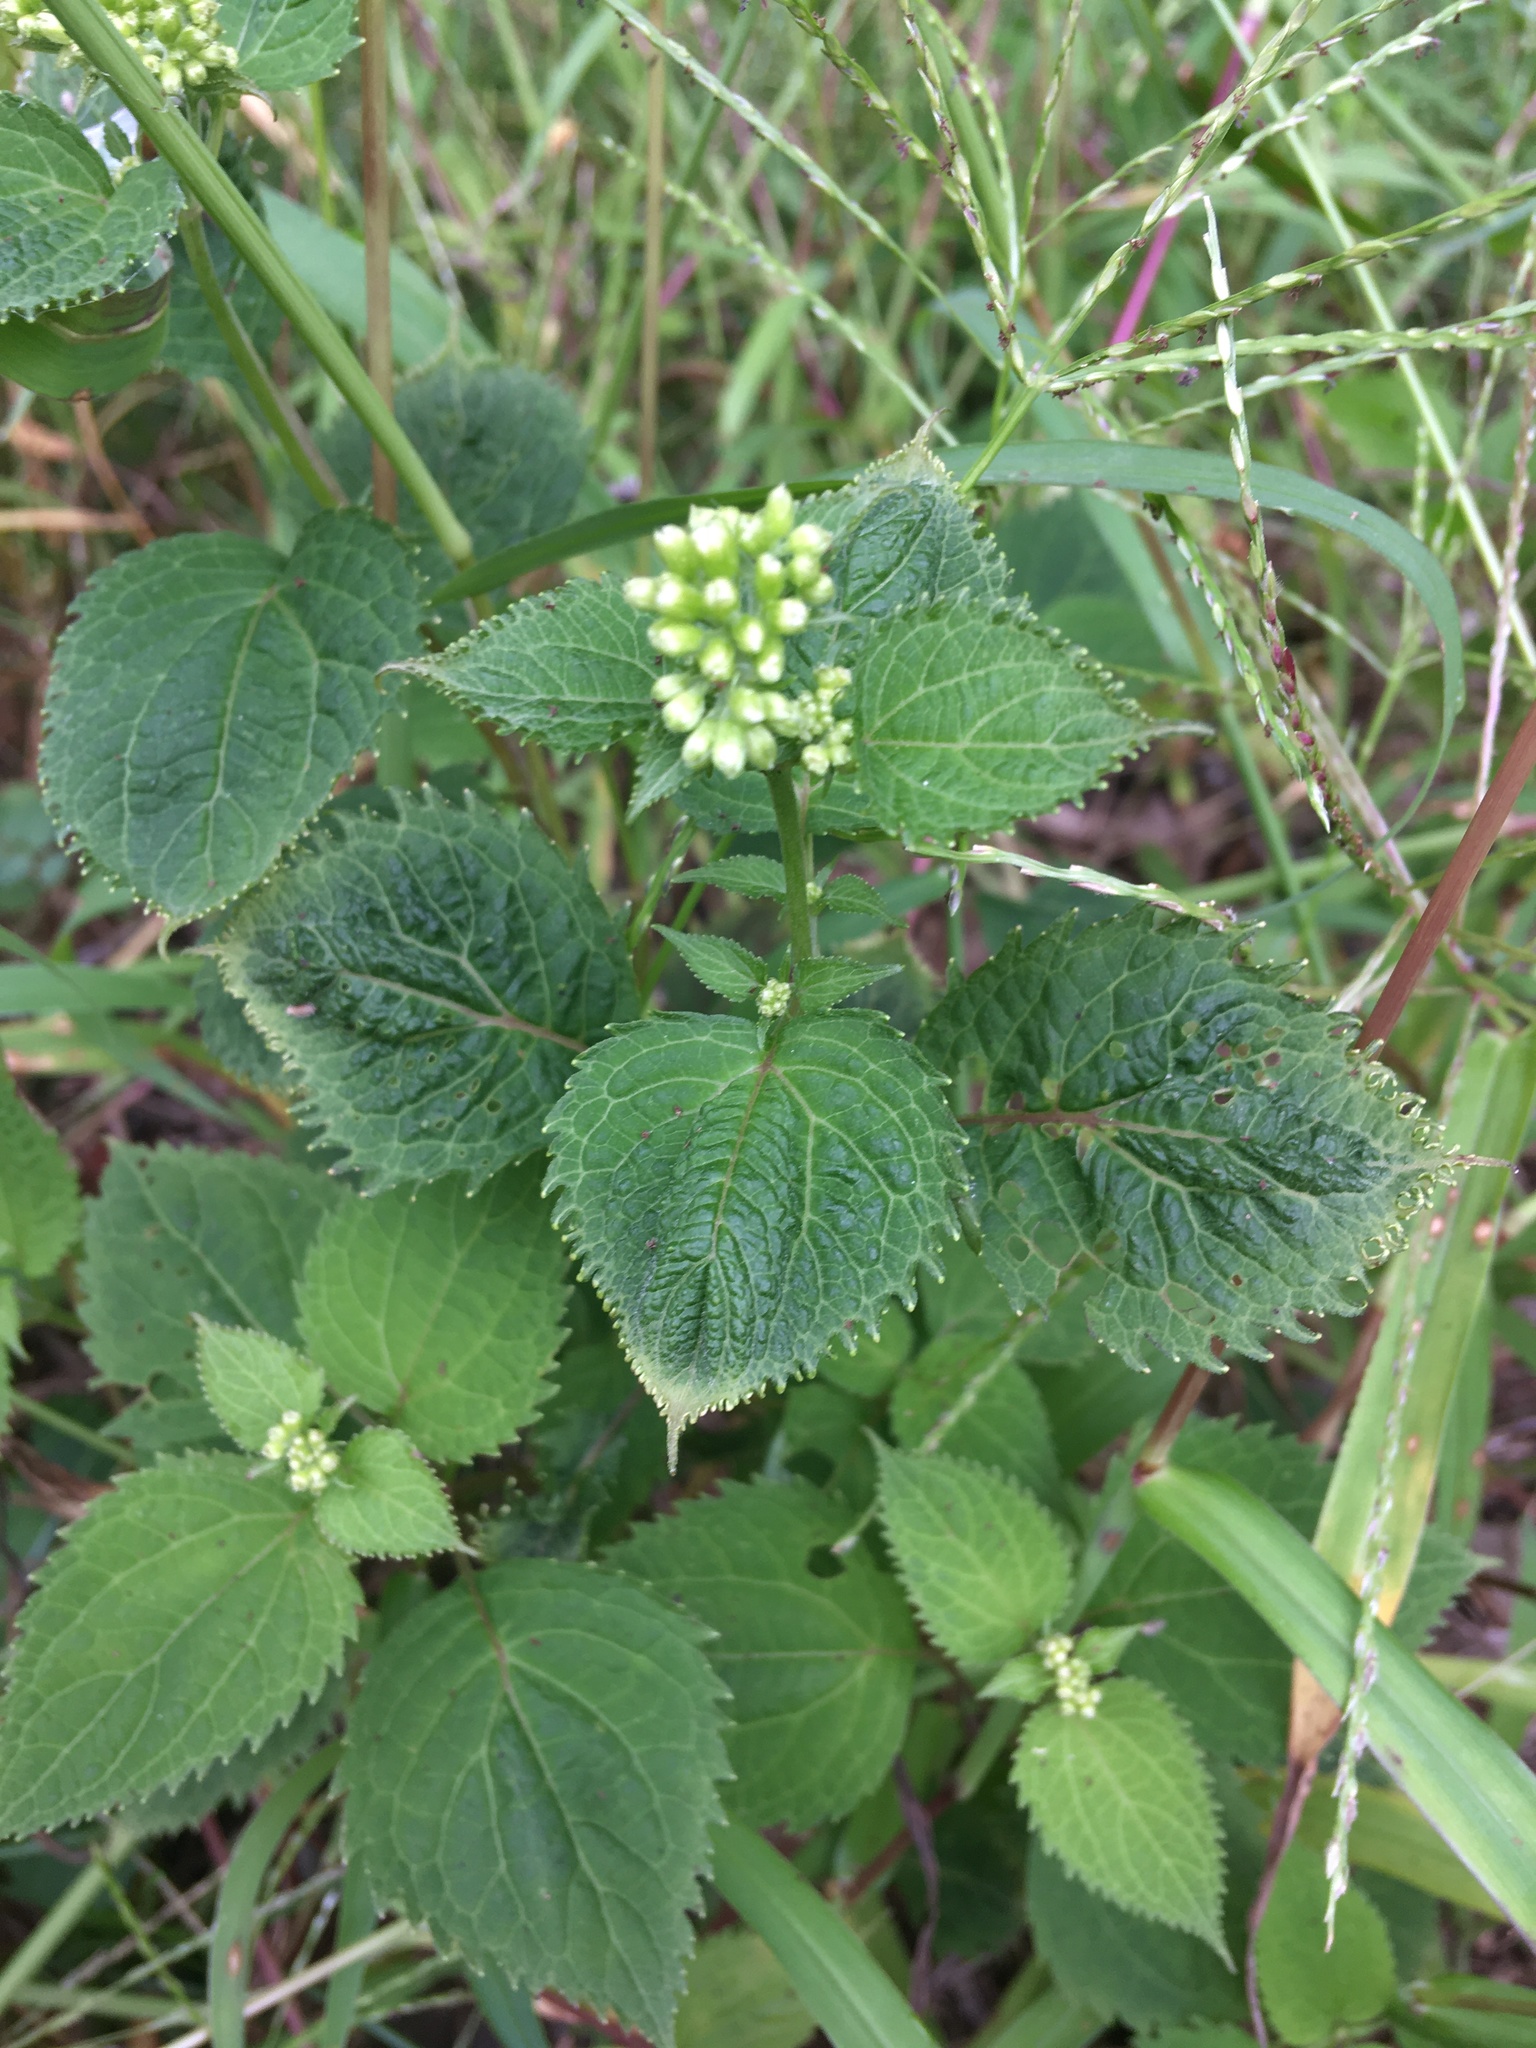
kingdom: Plantae
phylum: Tracheophyta
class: Magnoliopsida
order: Asterales
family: Asteraceae
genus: Ageratina
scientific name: Ageratina altissima
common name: White snakeroot
